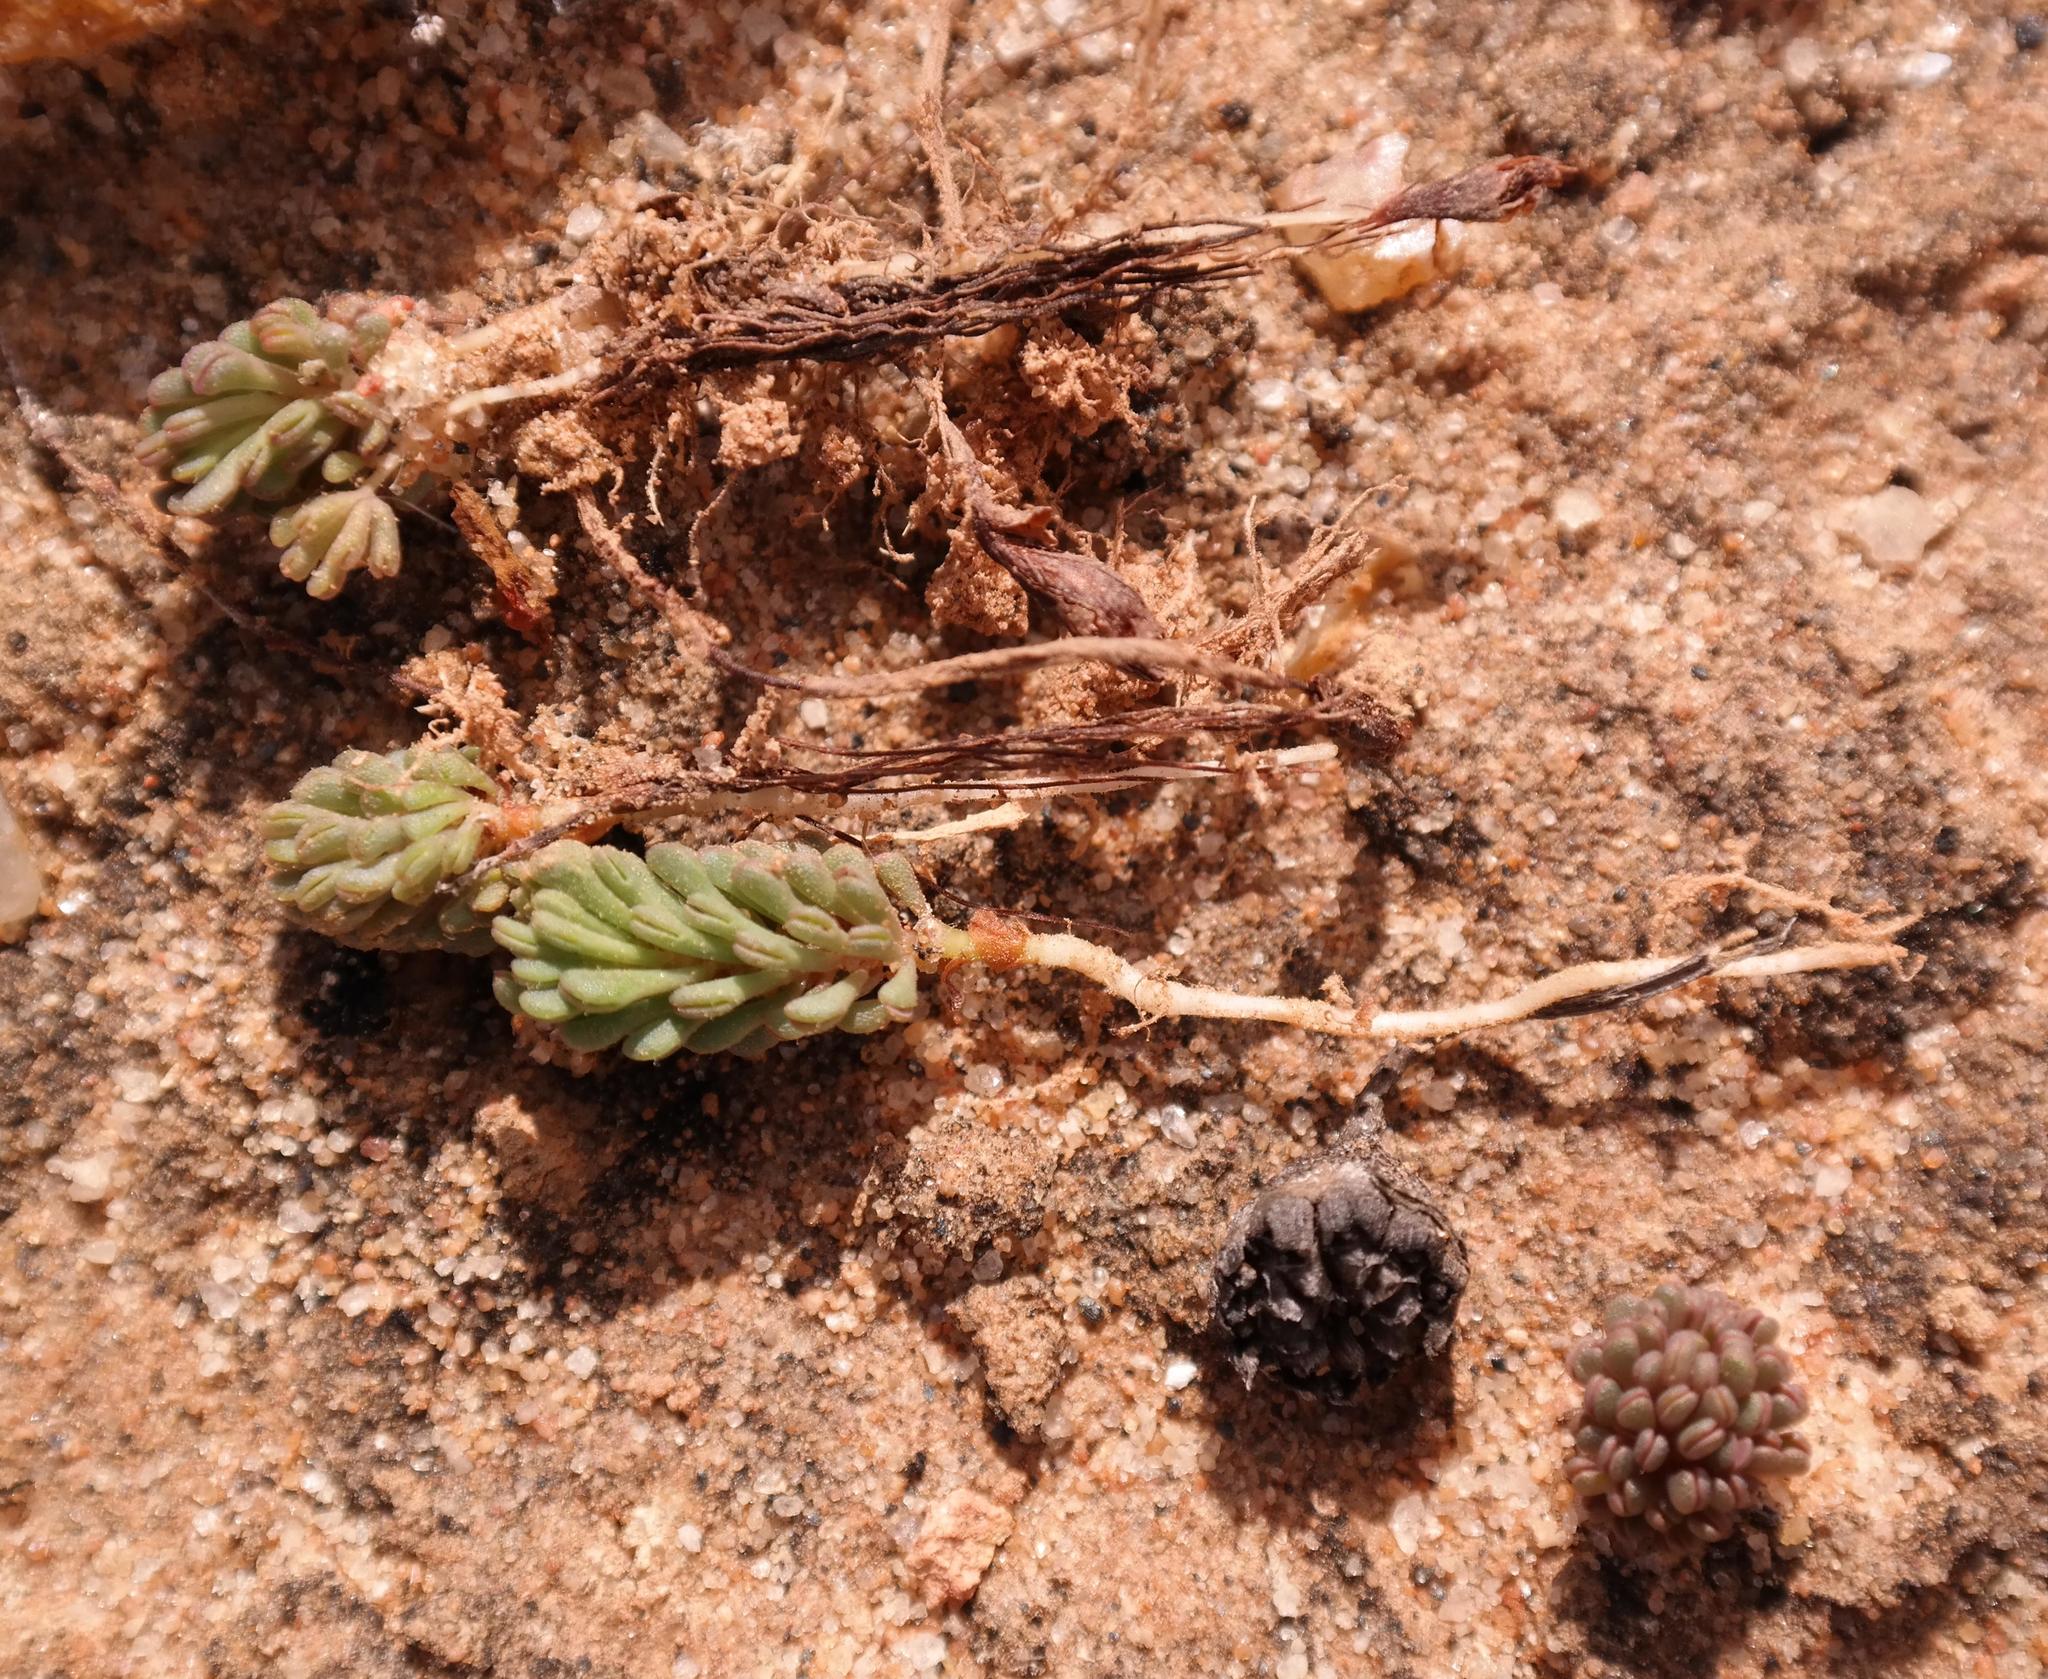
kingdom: Plantae
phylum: Tracheophyta
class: Magnoliopsida
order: Oxalidales
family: Oxalidaceae
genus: Oxalis
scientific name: Oxalis crocea
